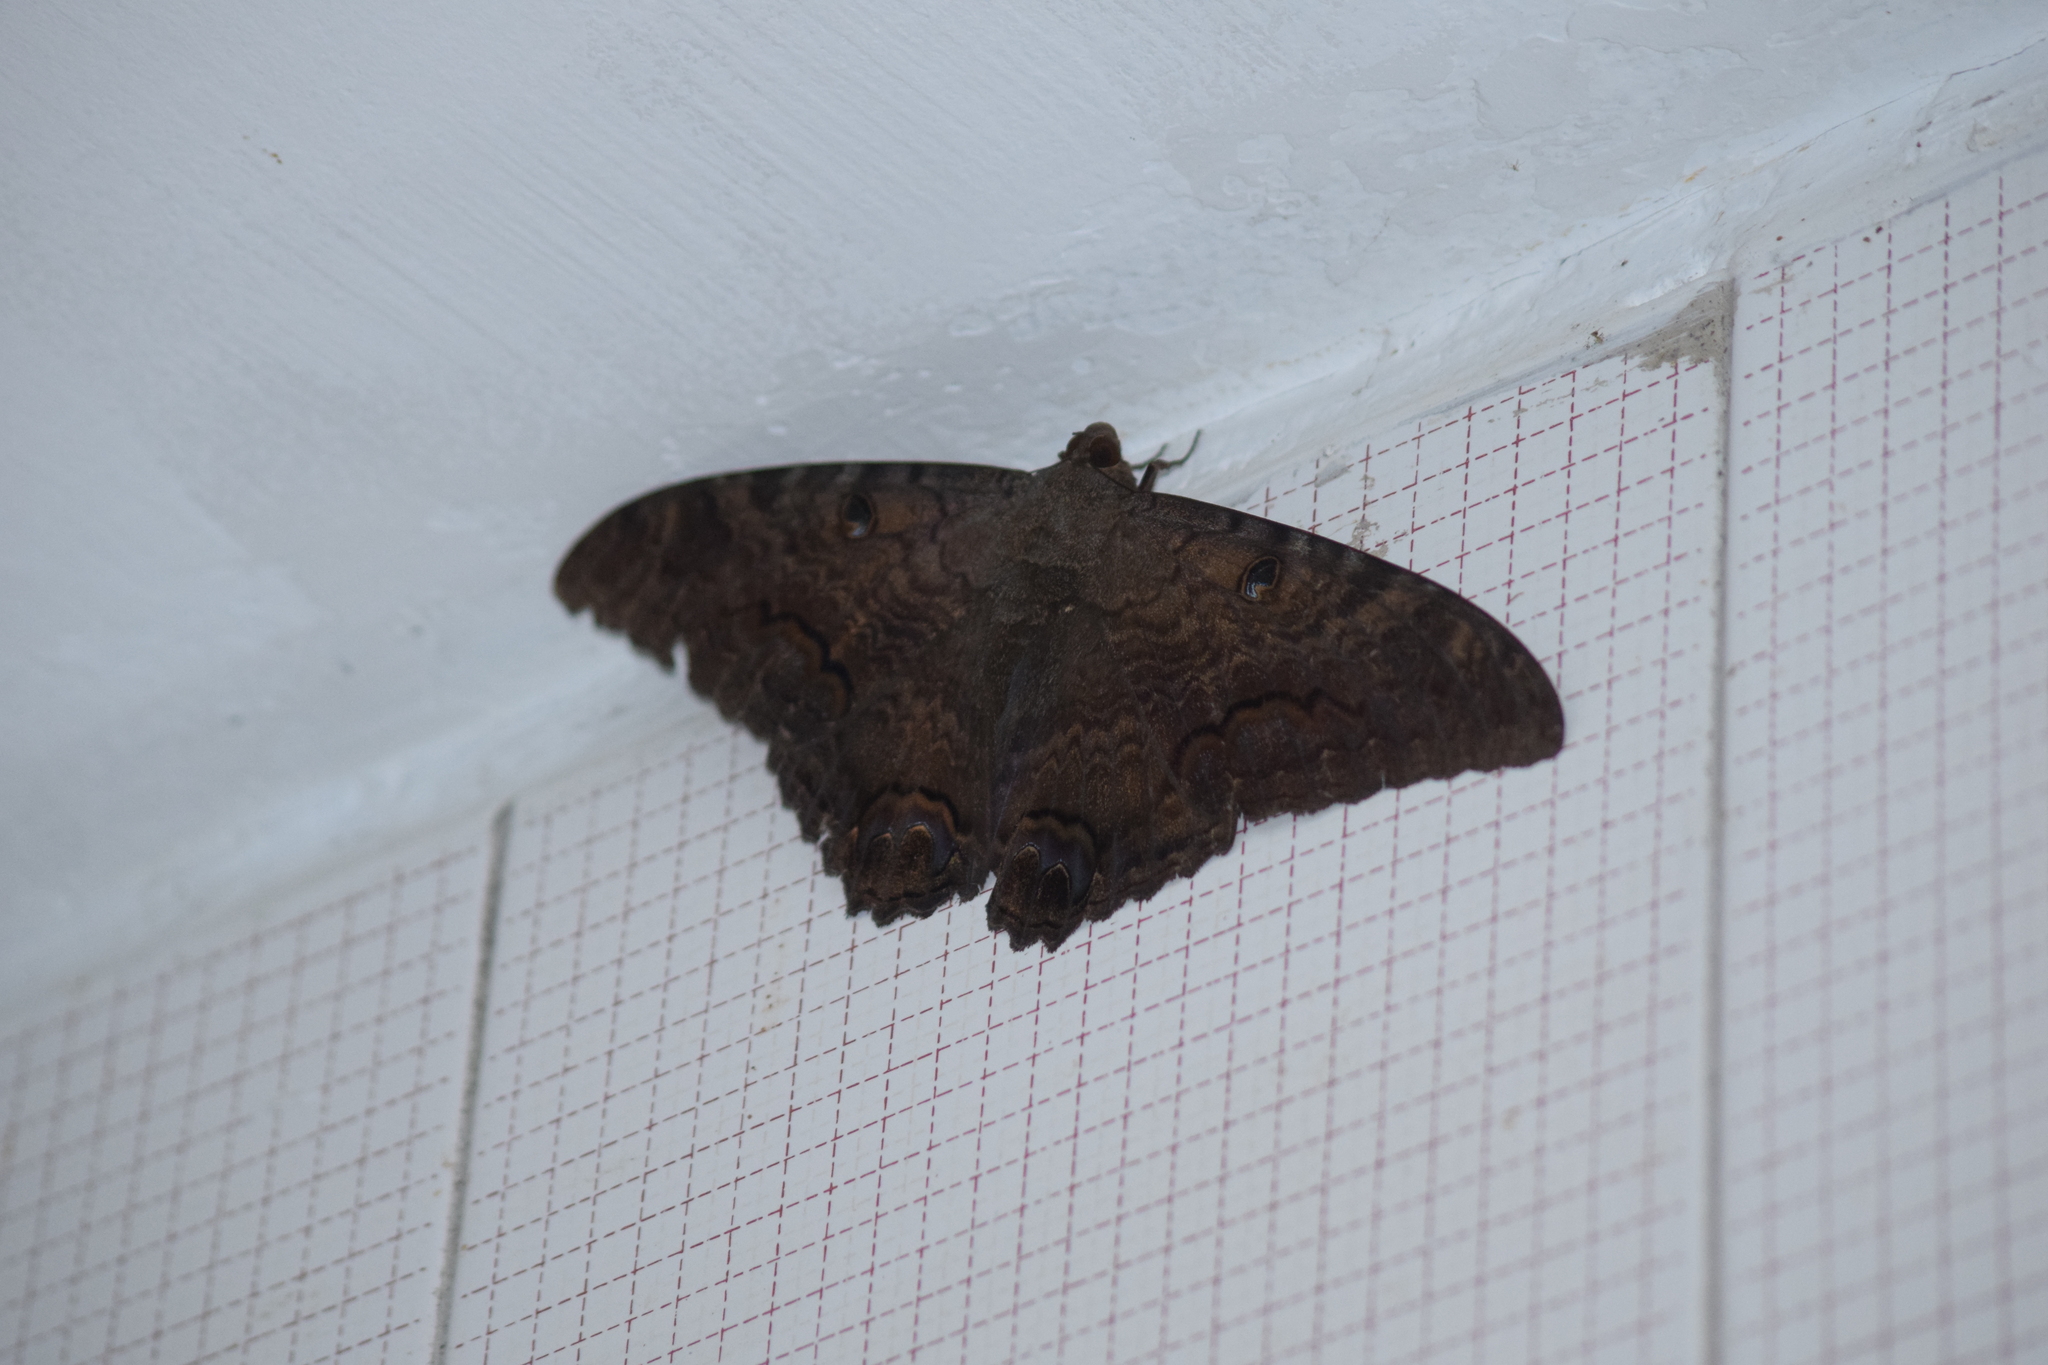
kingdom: Animalia
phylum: Arthropoda
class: Insecta
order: Lepidoptera
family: Erebidae
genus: Ascalapha
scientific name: Ascalapha odorata
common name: Black witch
